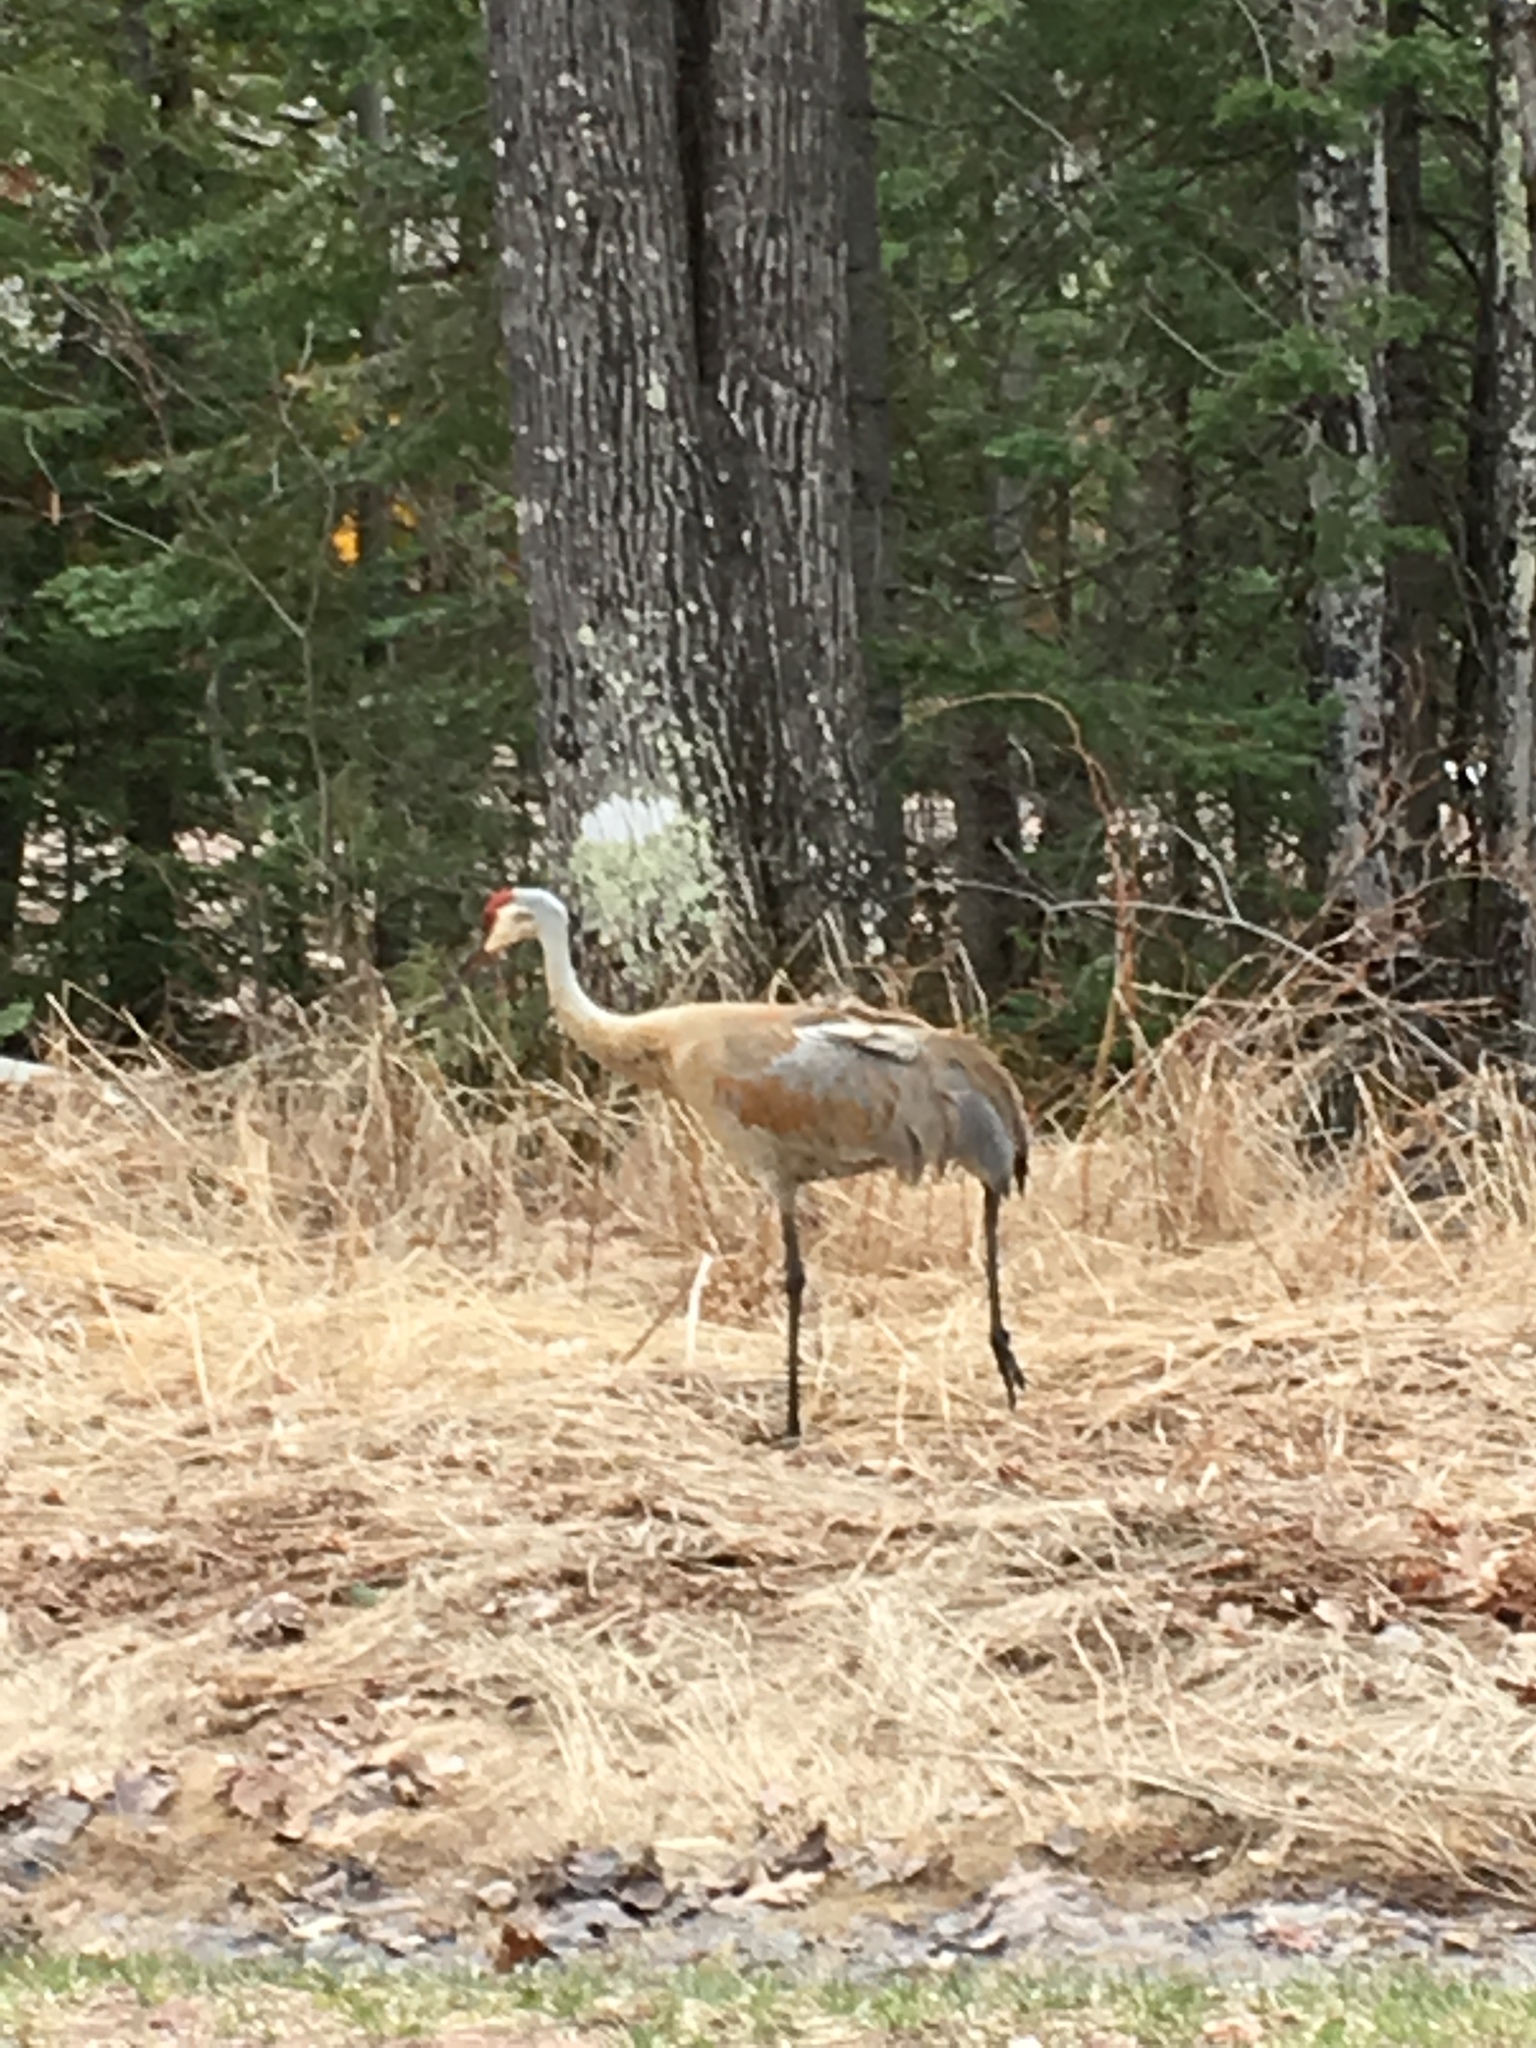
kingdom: Animalia
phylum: Chordata
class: Aves
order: Gruiformes
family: Gruidae
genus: Grus
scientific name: Grus canadensis
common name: Sandhill crane
